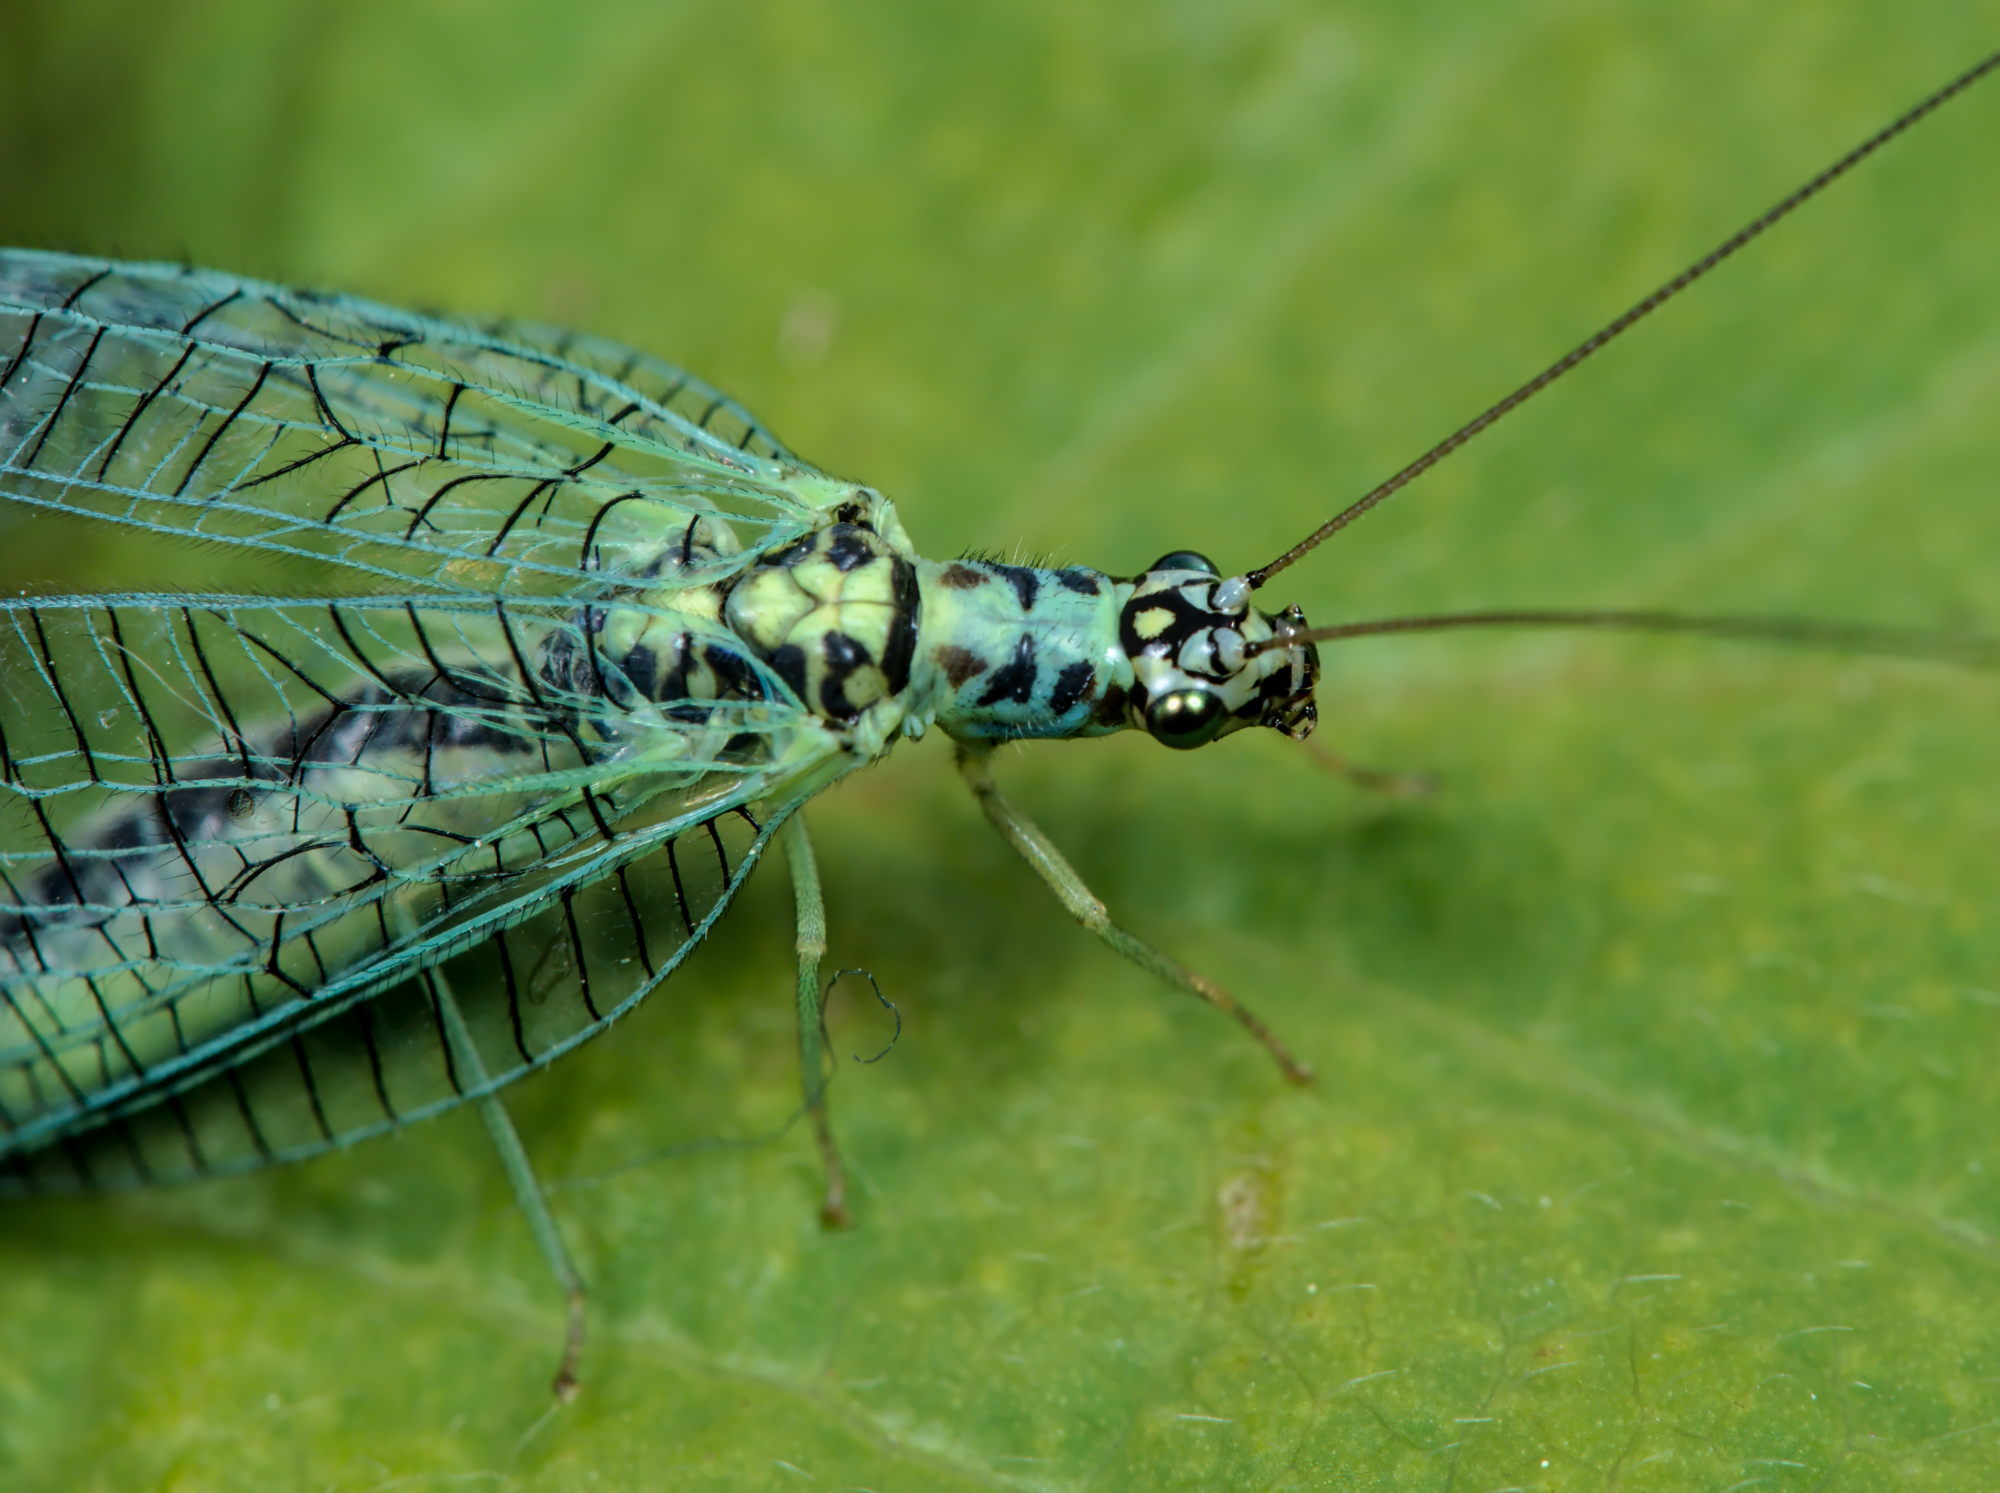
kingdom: Animalia
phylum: Arthropoda
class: Insecta
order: Neuroptera
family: Chrysopidae
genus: Chrysopa
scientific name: Chrysopa perla
